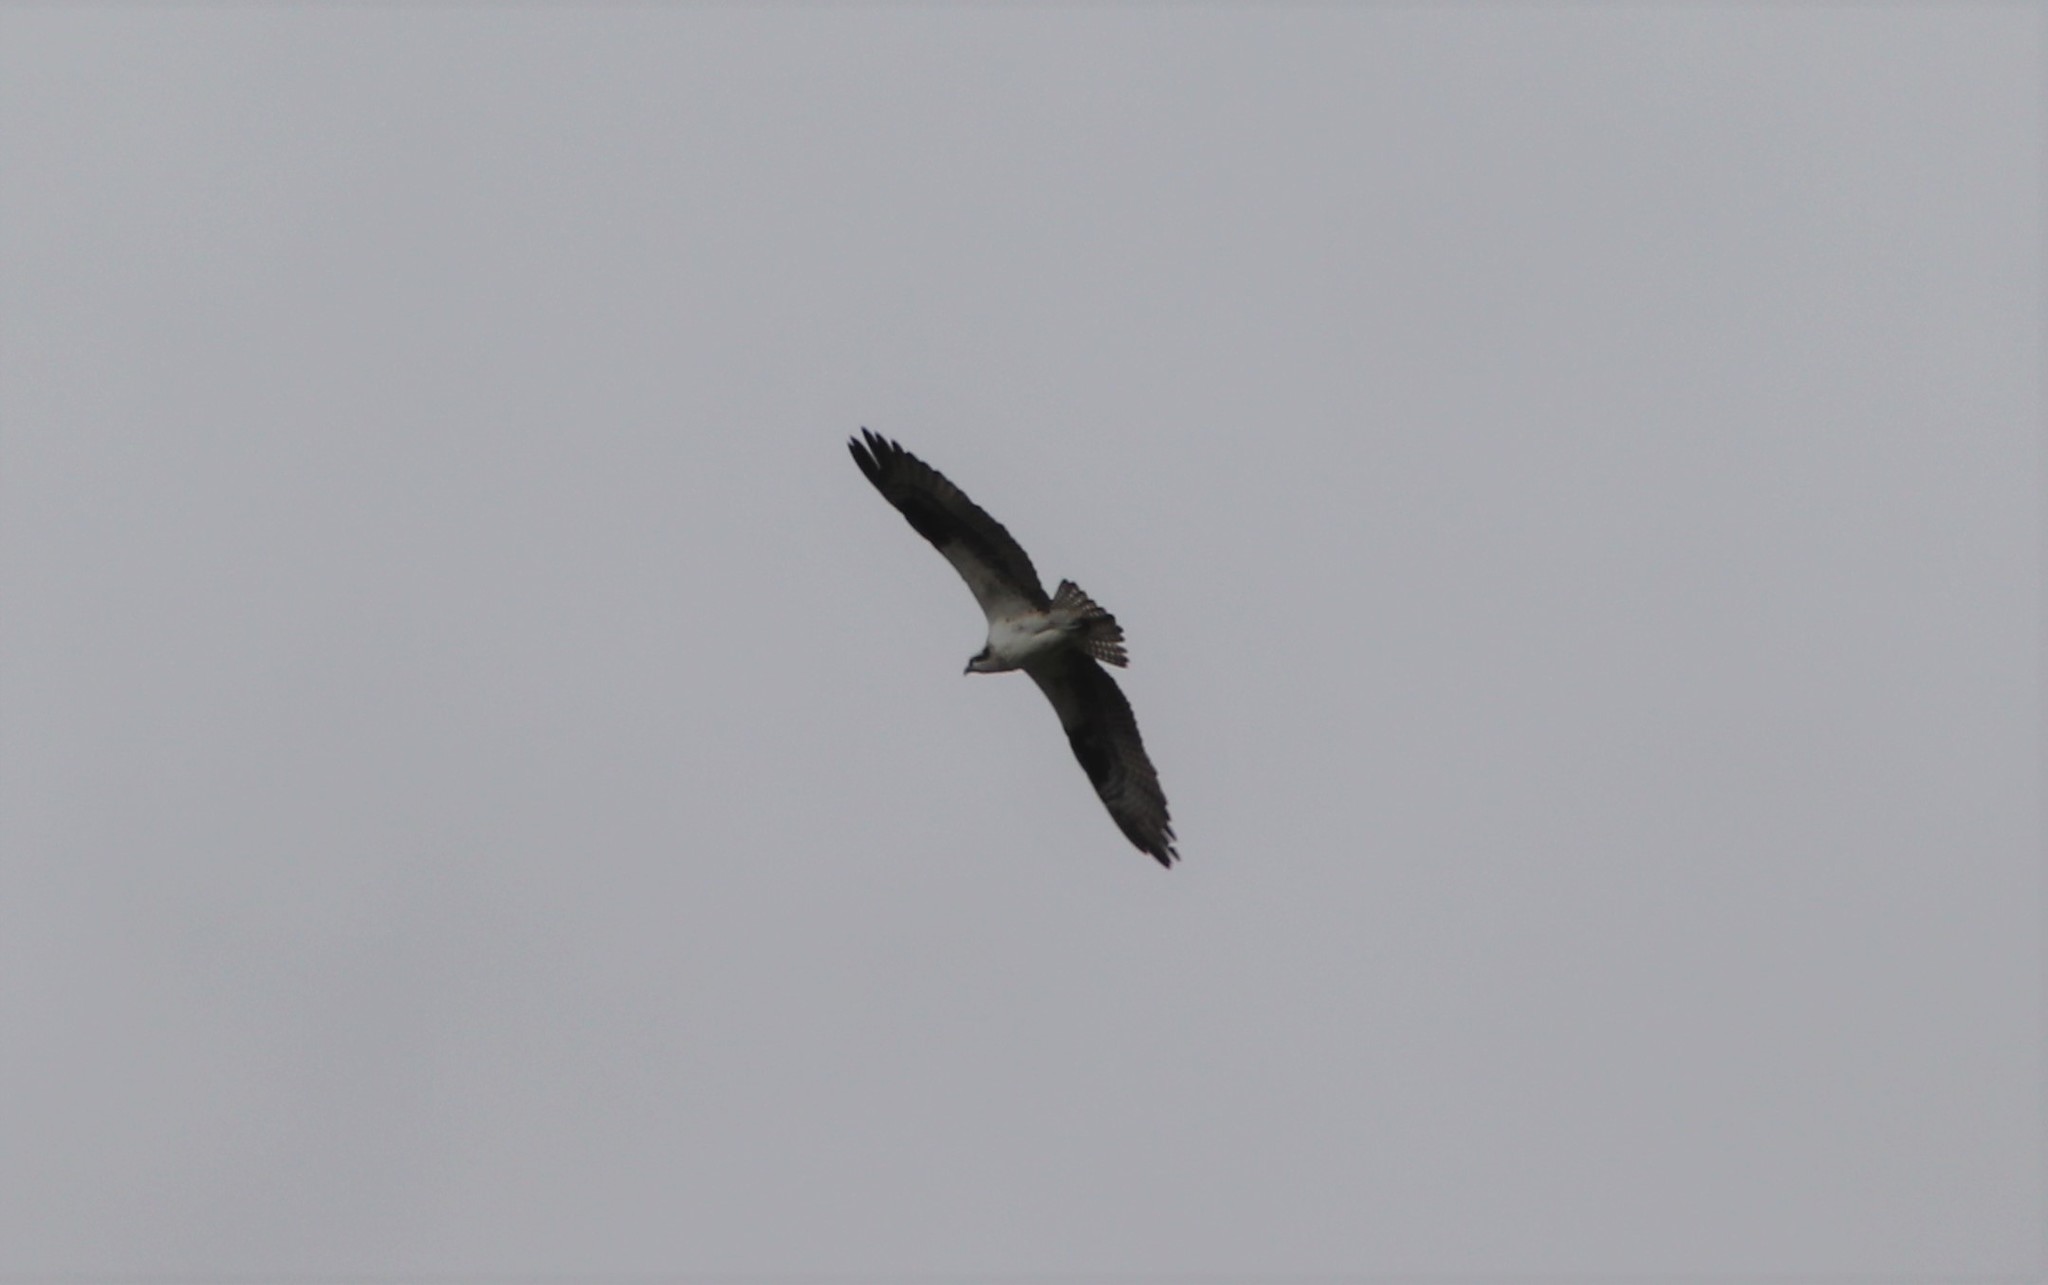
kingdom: Animalia
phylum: Chordata
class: Aves
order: Accipitriformes
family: Pandionidae
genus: Pandion
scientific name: Pandion haliaetus
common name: Osprey
